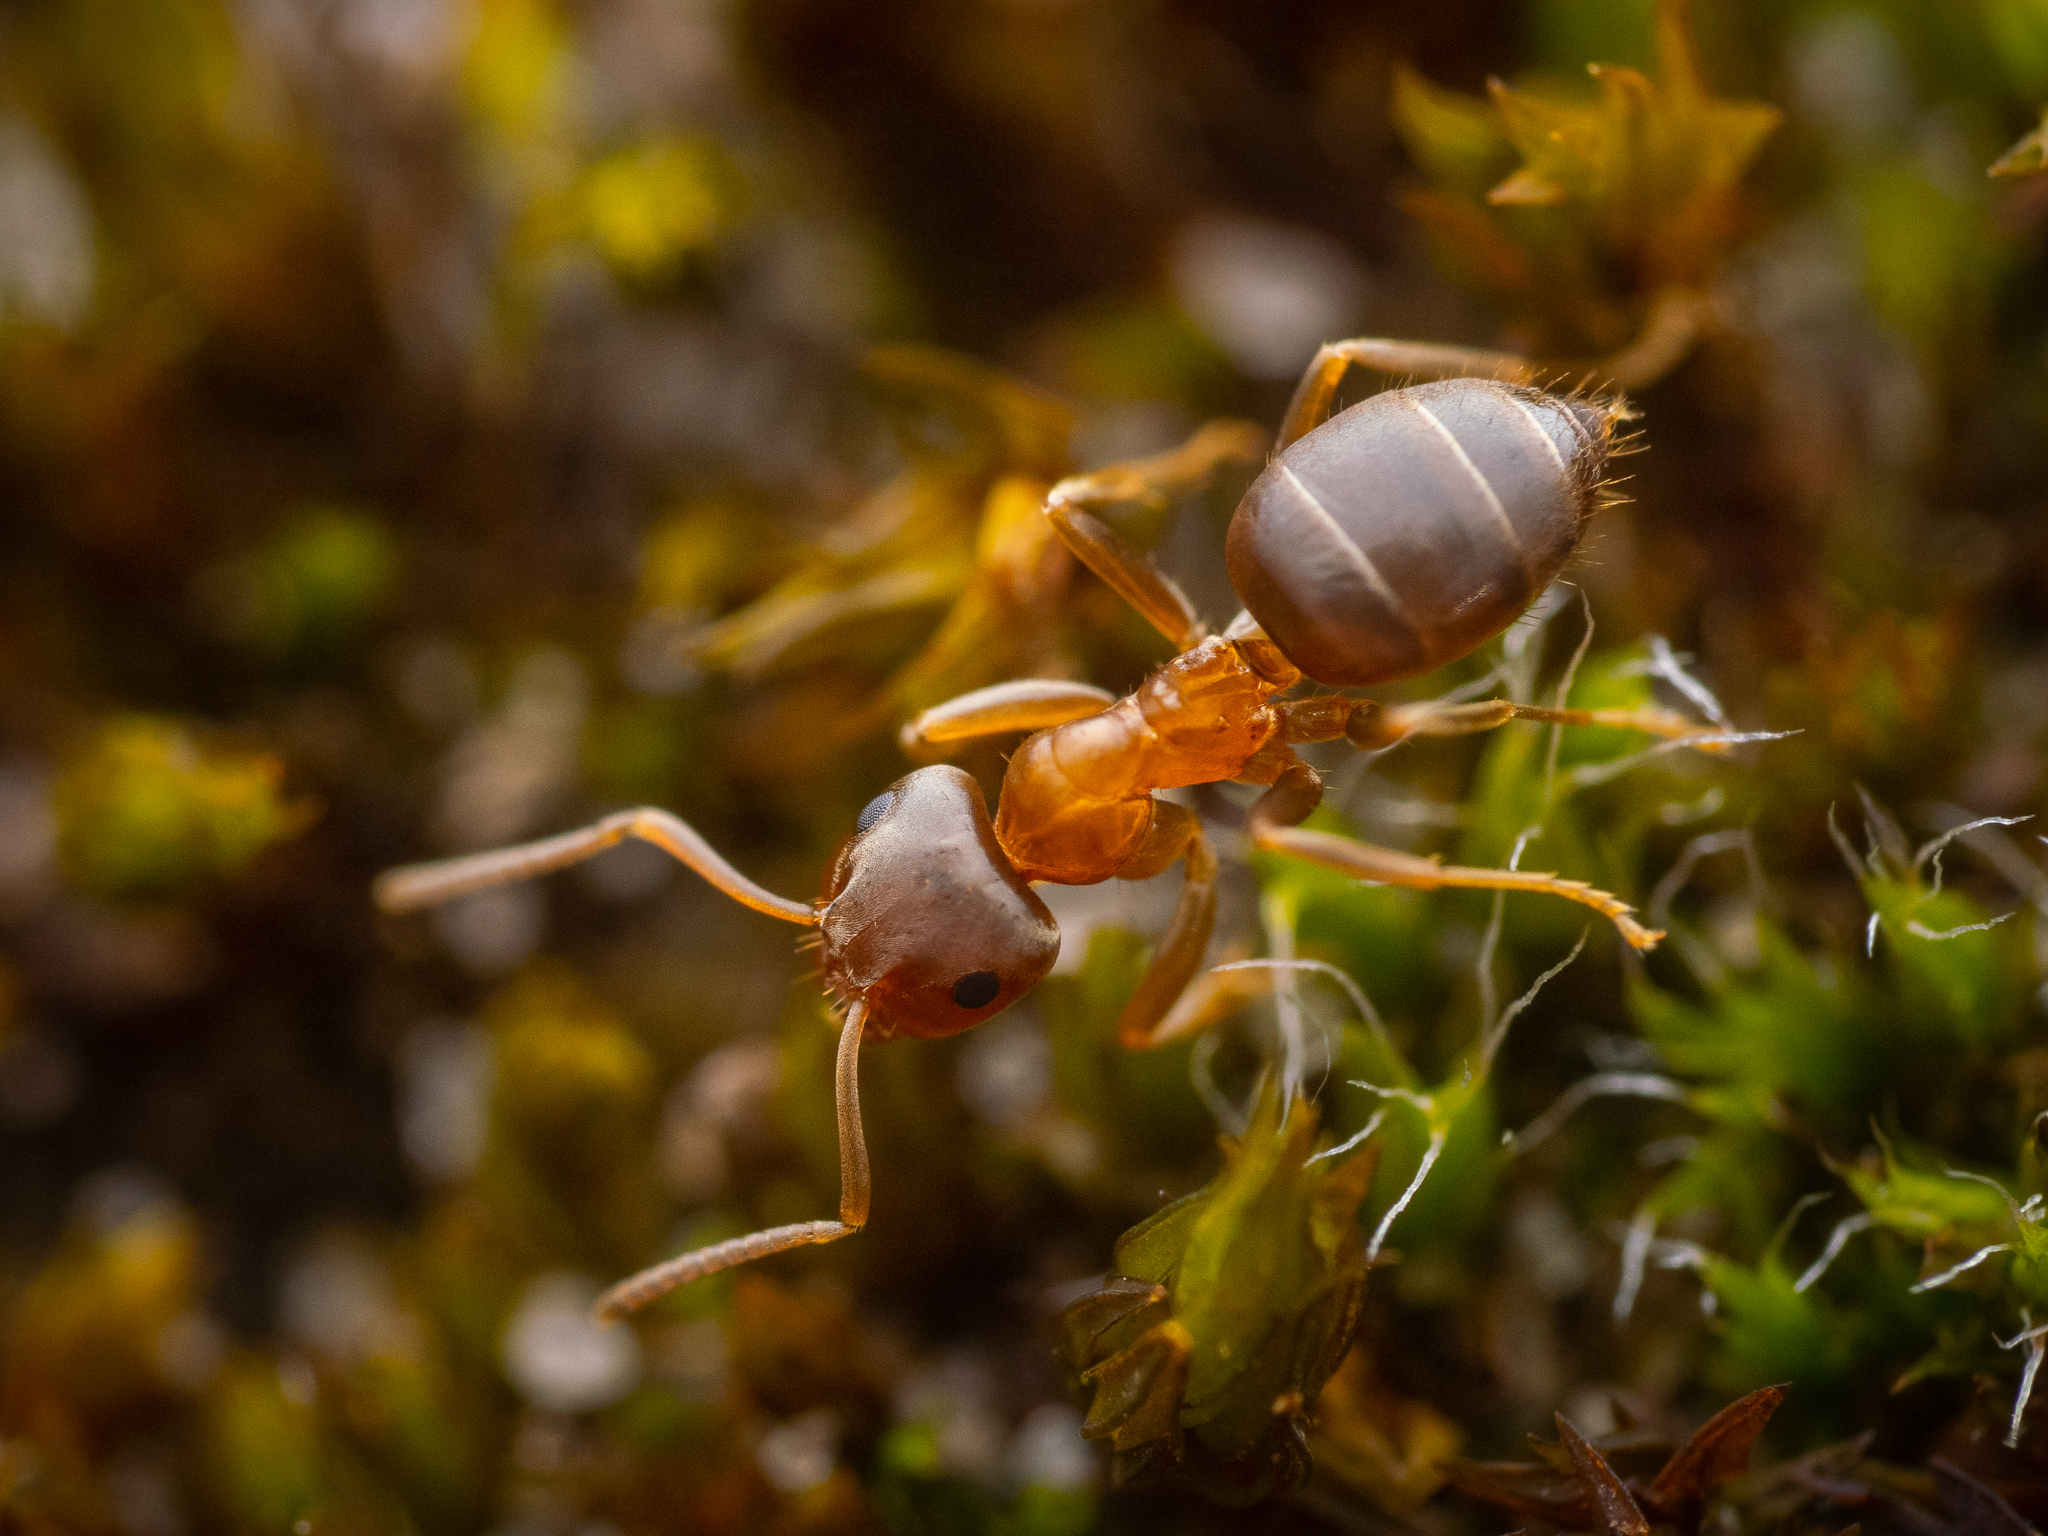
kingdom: Animalia
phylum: Arthropoda
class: Insecta
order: Hymenoptera
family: Formicidae
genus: Lasius
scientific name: Lasius brunneus
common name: Brown ant
